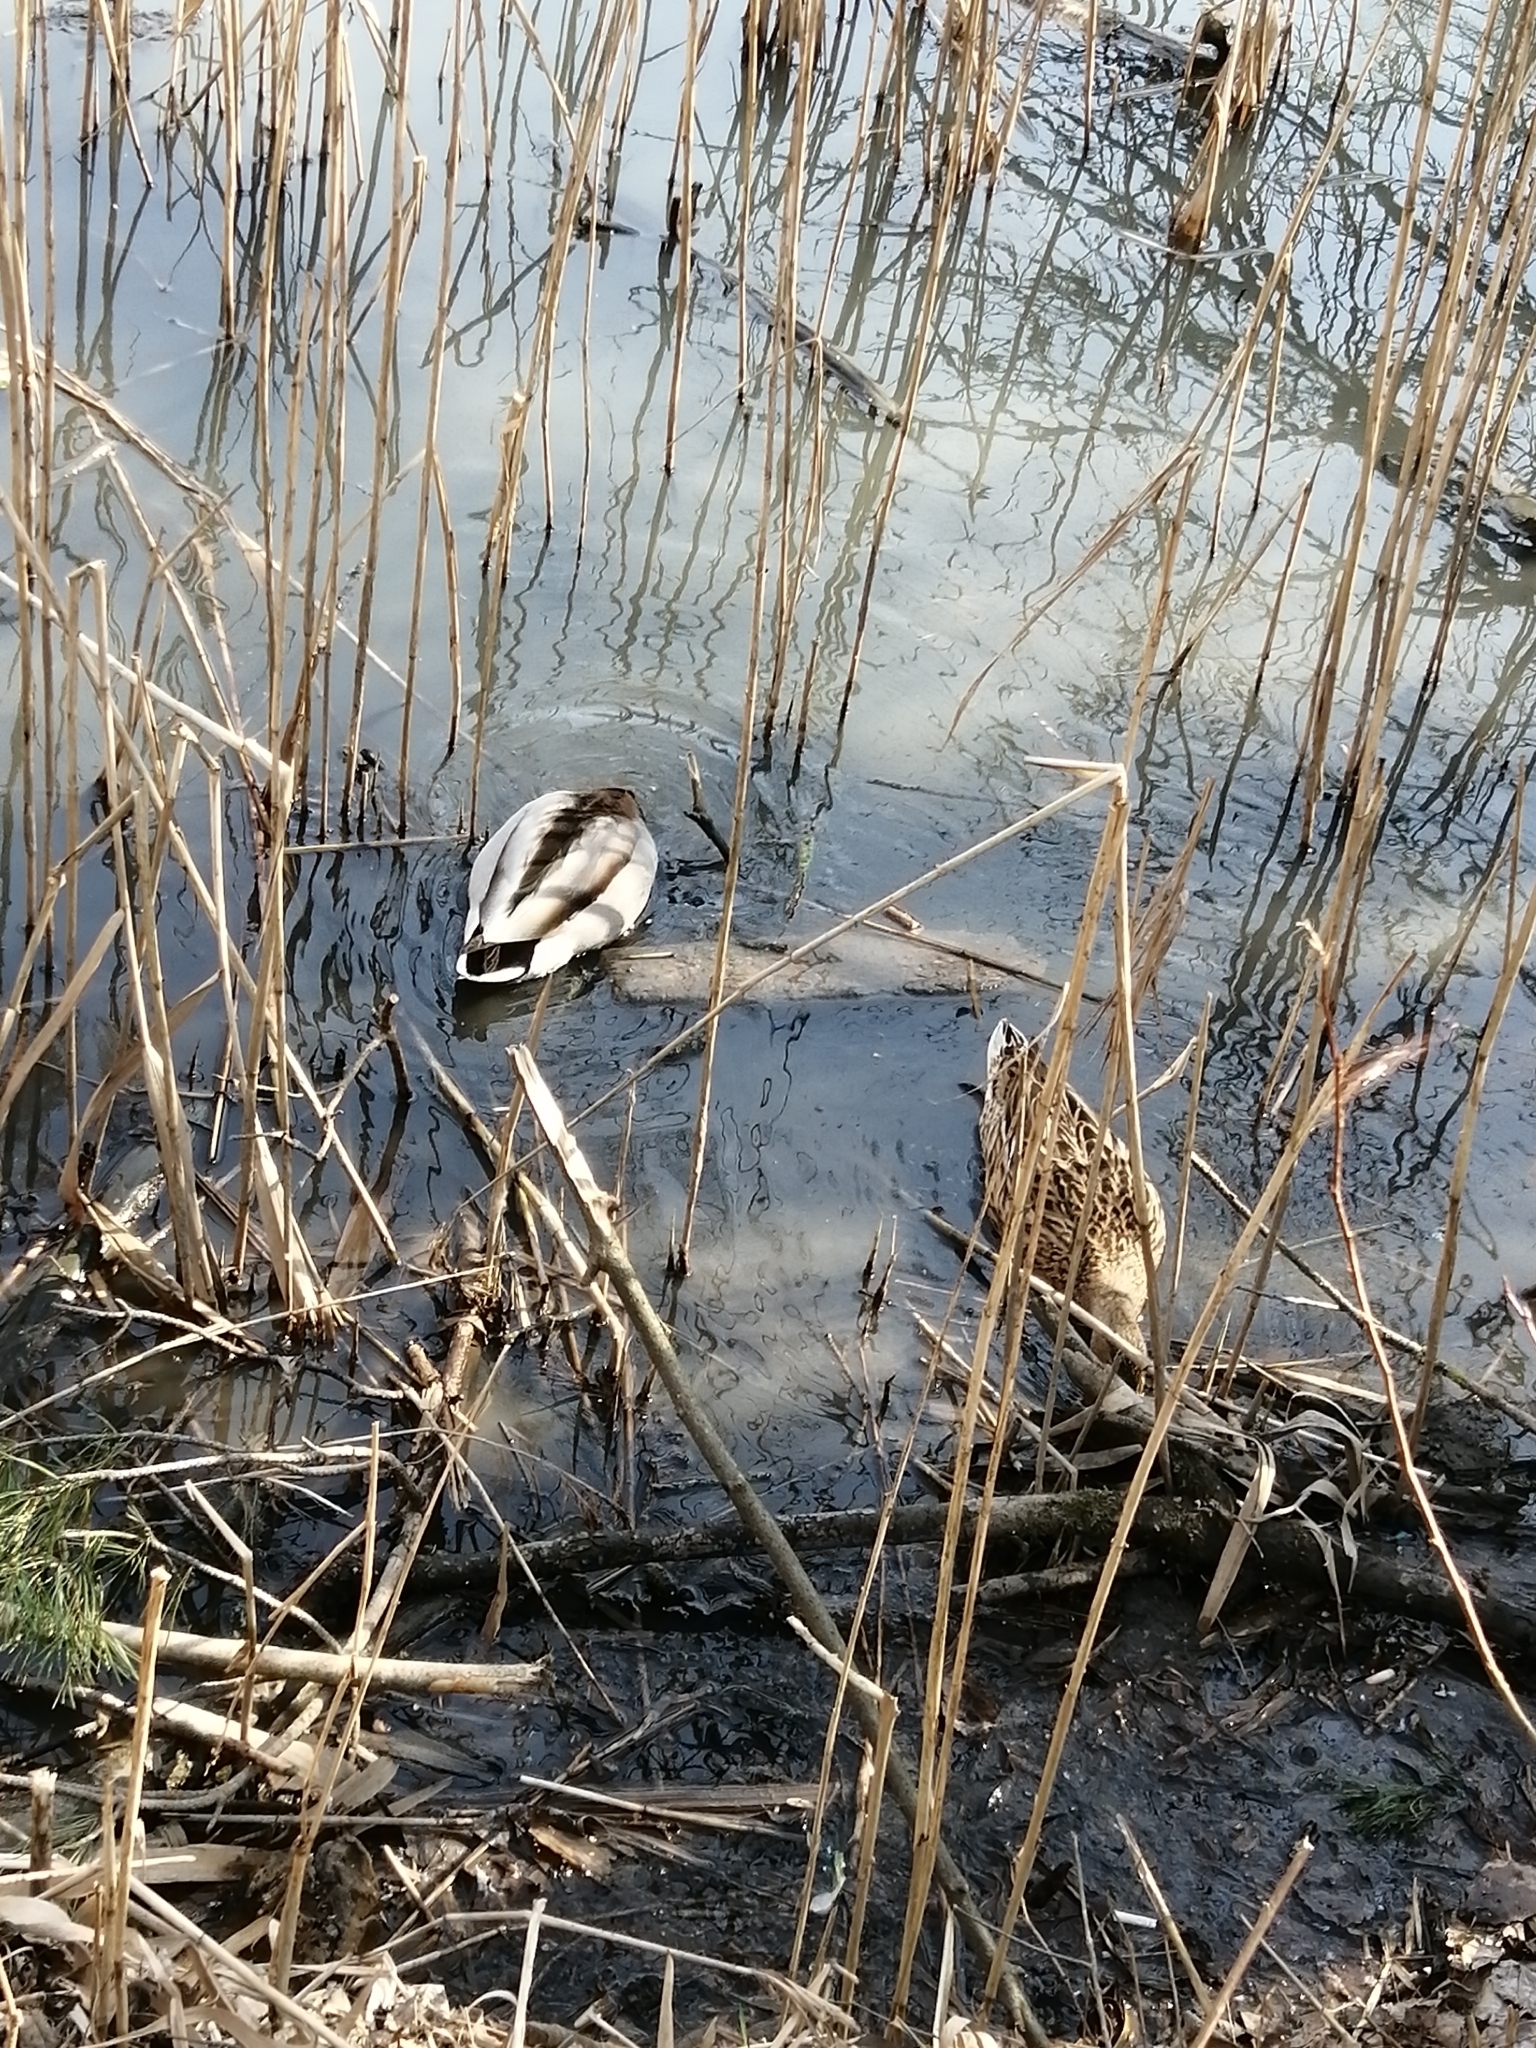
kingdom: Animalia
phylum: Chordata
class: Aves
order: Anseriformes
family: Anatidae
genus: Anas
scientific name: Anas platyrhynchos
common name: Mallard
